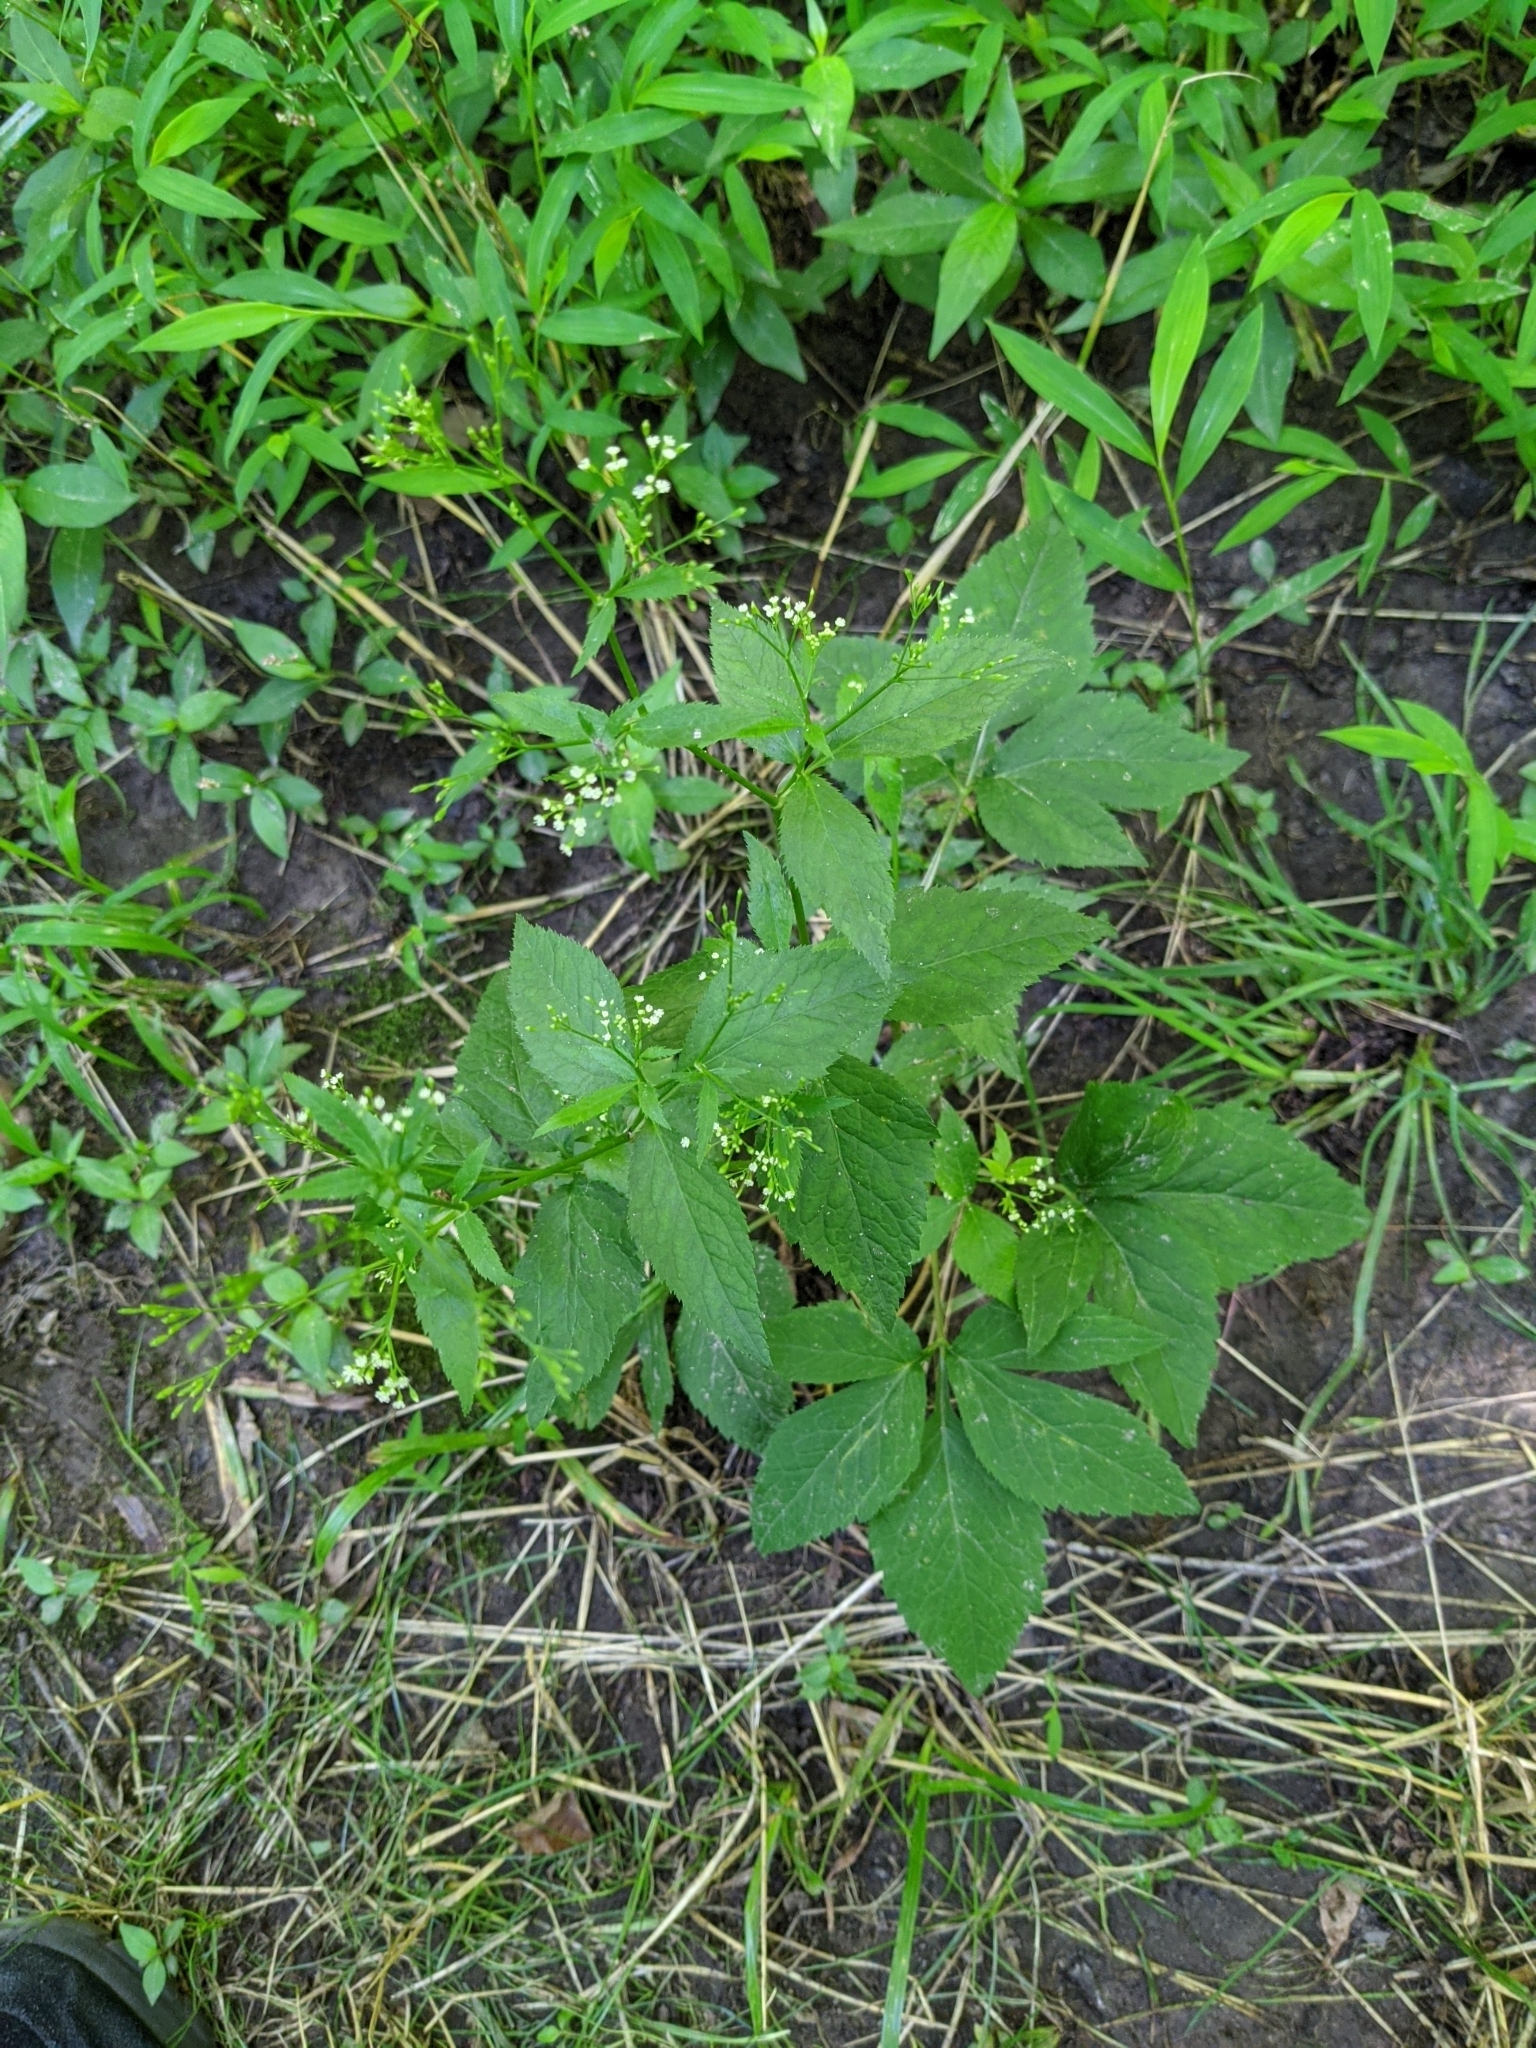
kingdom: Plantae
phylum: Tracheophyta
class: Magnoliopsida
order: Apiales
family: Apiaceae
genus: Cryptotaenia
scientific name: Cryptotaenia canadensis
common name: Honewort
